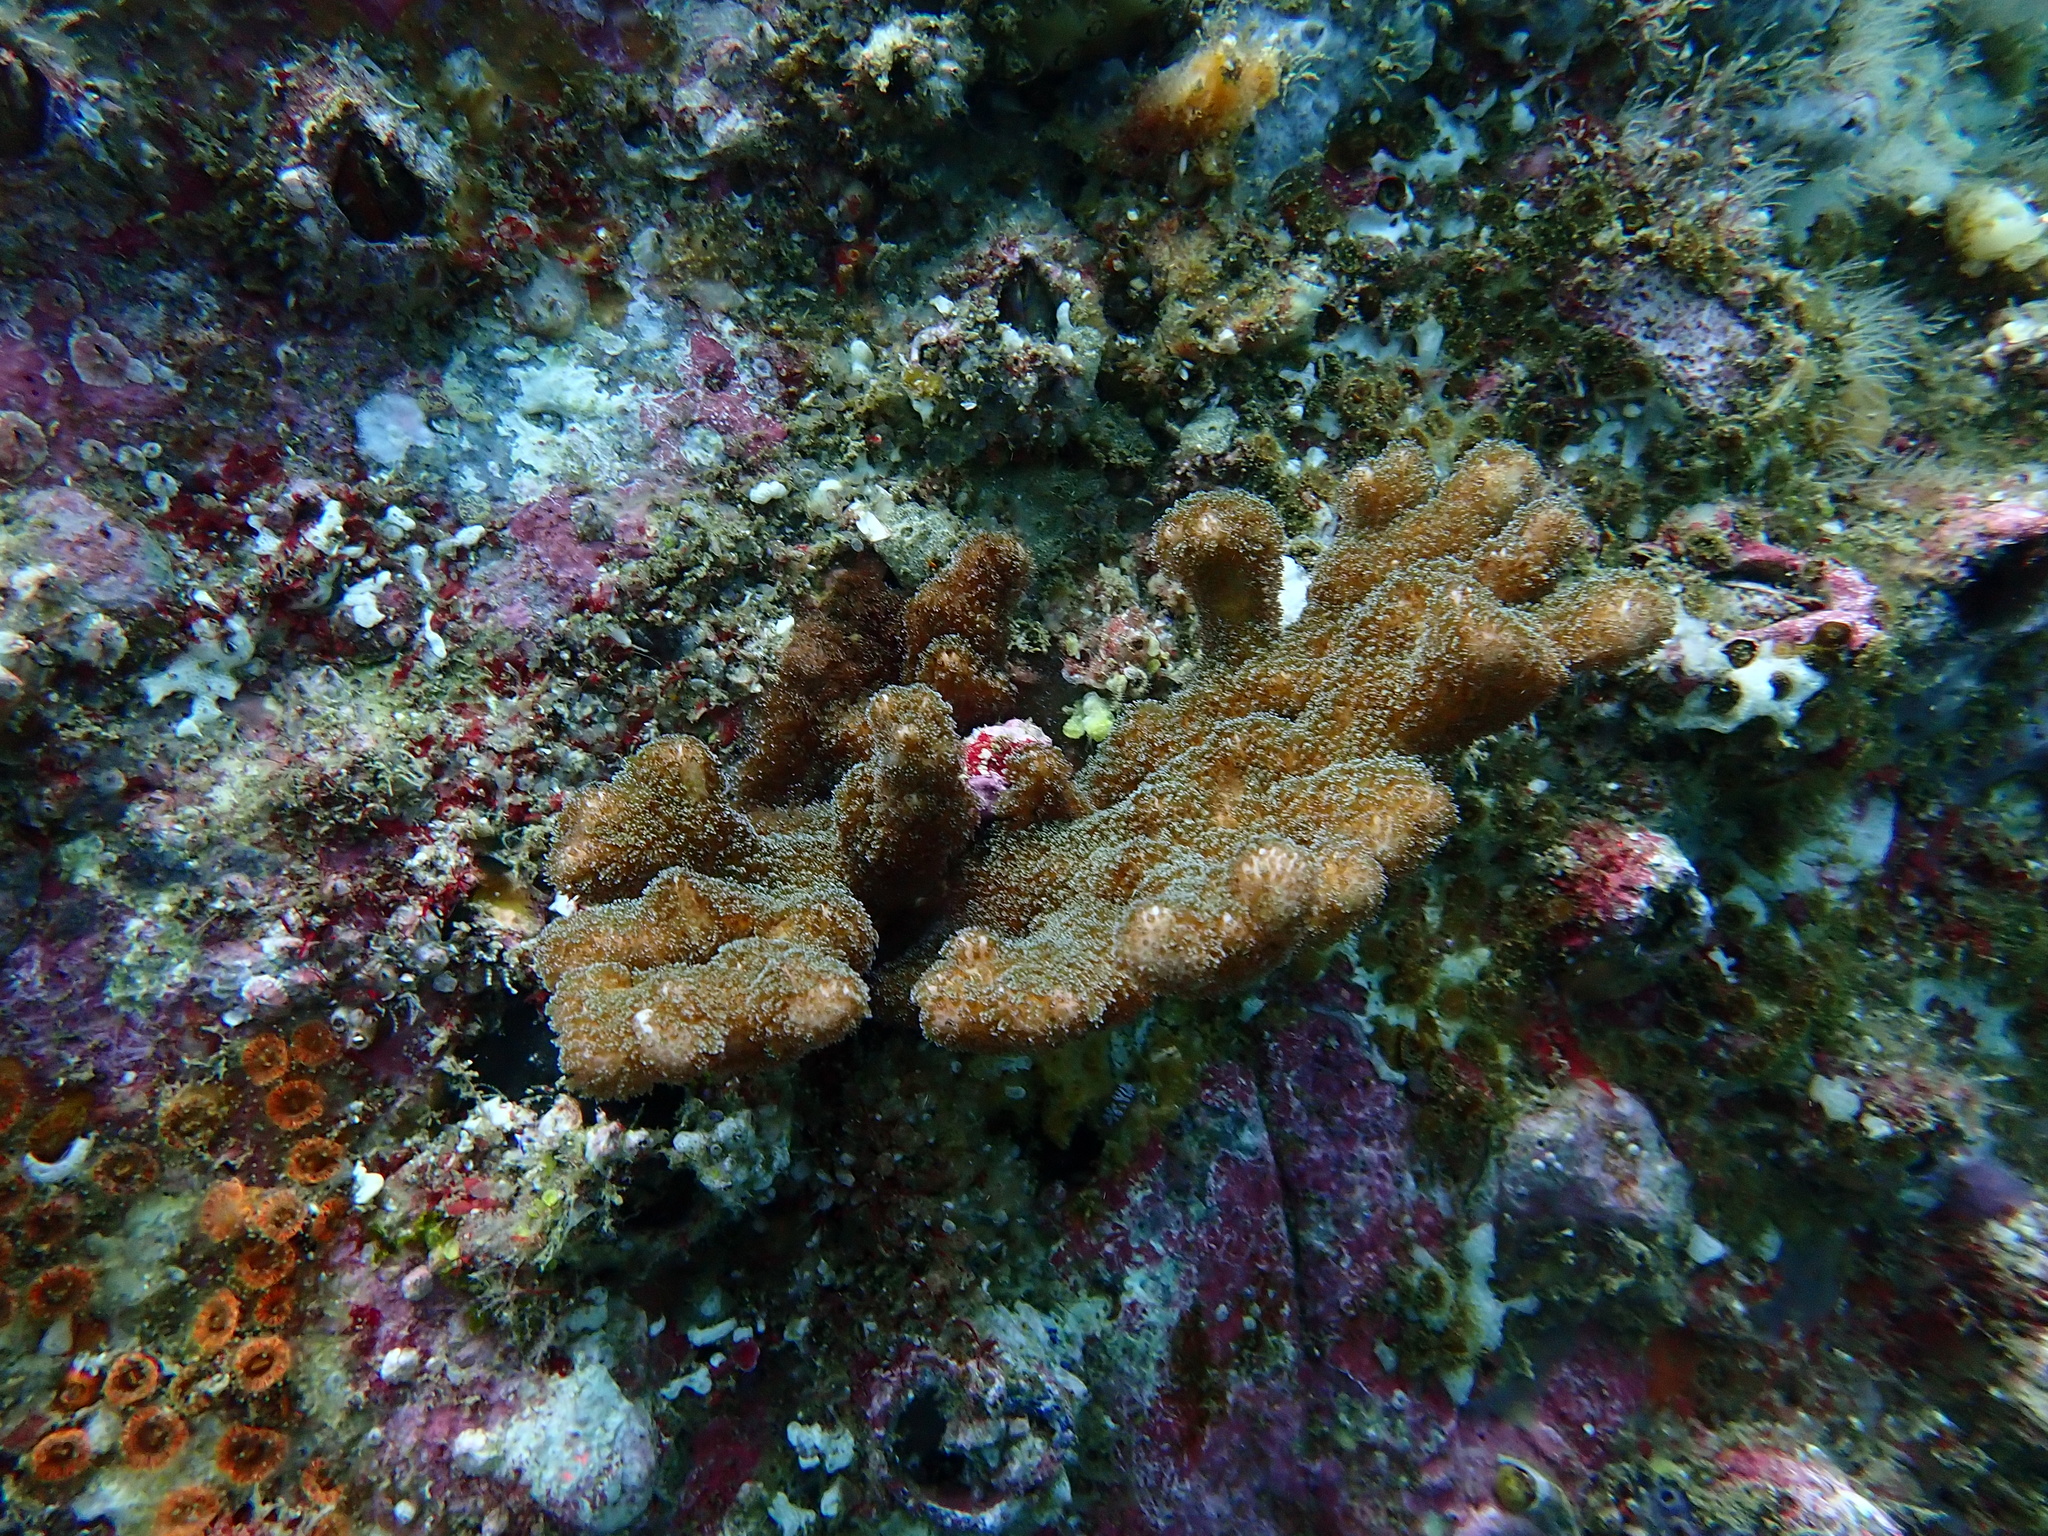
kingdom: Animalia
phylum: Cnidaria
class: Anthozoa
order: Scleractinia
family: Pocilloporidae
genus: Pocillopora
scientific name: Pocillopora aliciae
